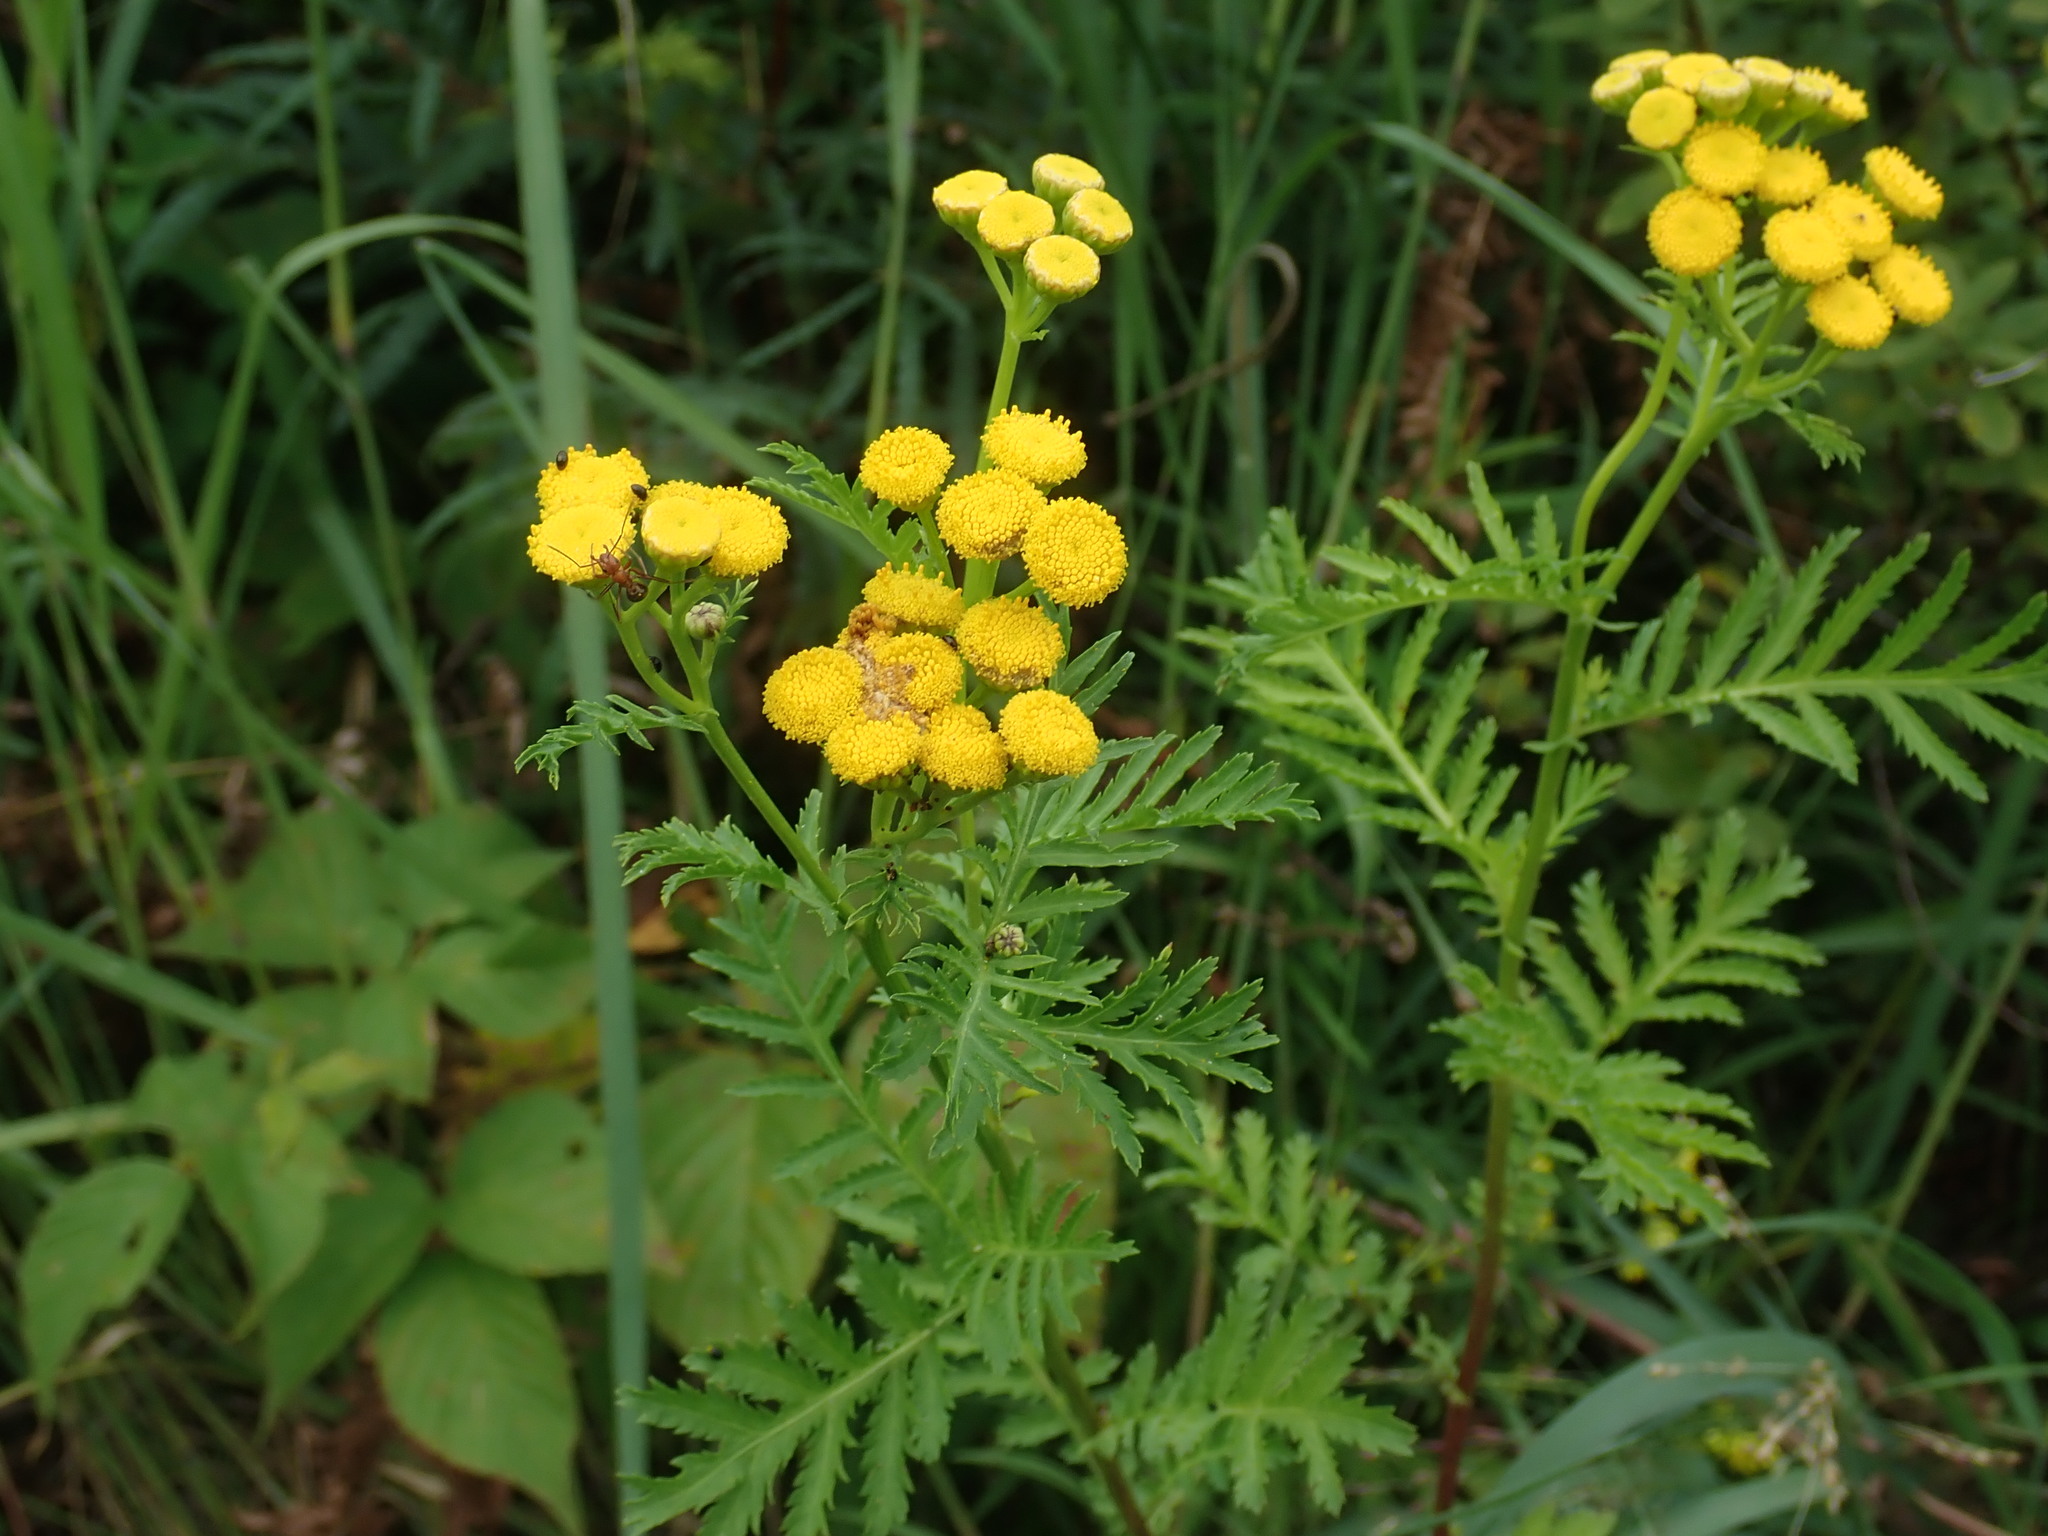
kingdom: Plantae
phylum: Tracheophyta
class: Magnoliopsida
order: Asterales
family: Asteraceae
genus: Tanacetum
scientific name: Tanacetum vulgare
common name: Common tansy
